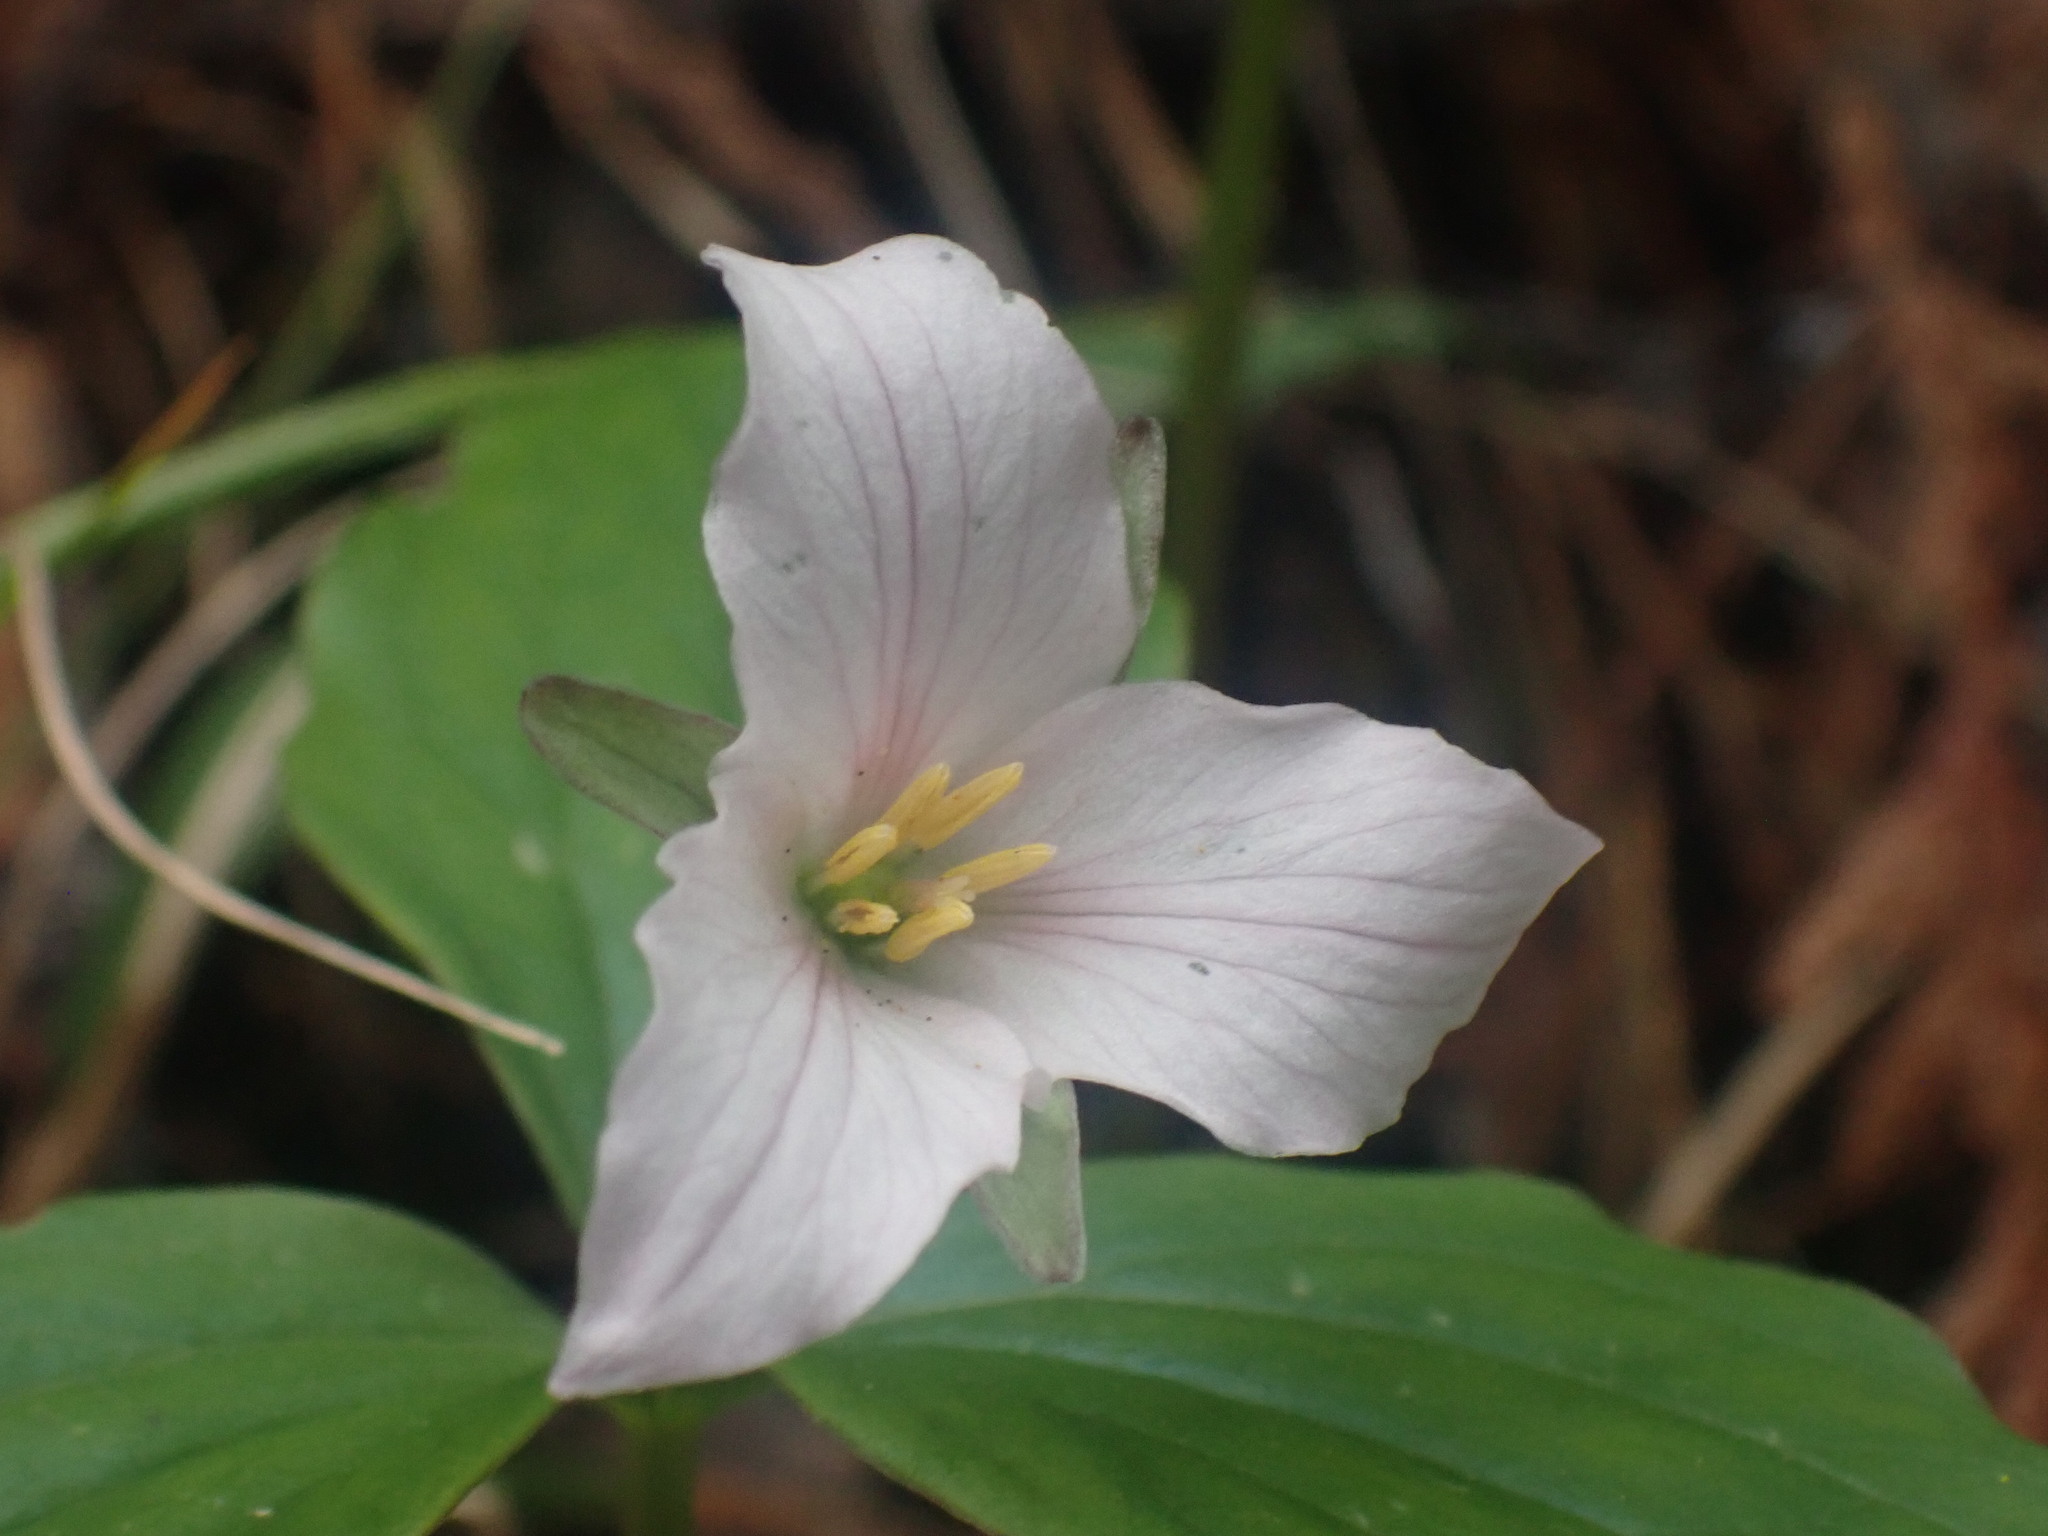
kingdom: Plantae
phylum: Tracheophyta
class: Liliopsida
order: Liliales
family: Melanthiaceae
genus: Trillium
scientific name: Trillium hibbersonii
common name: Hibberson's trillium
